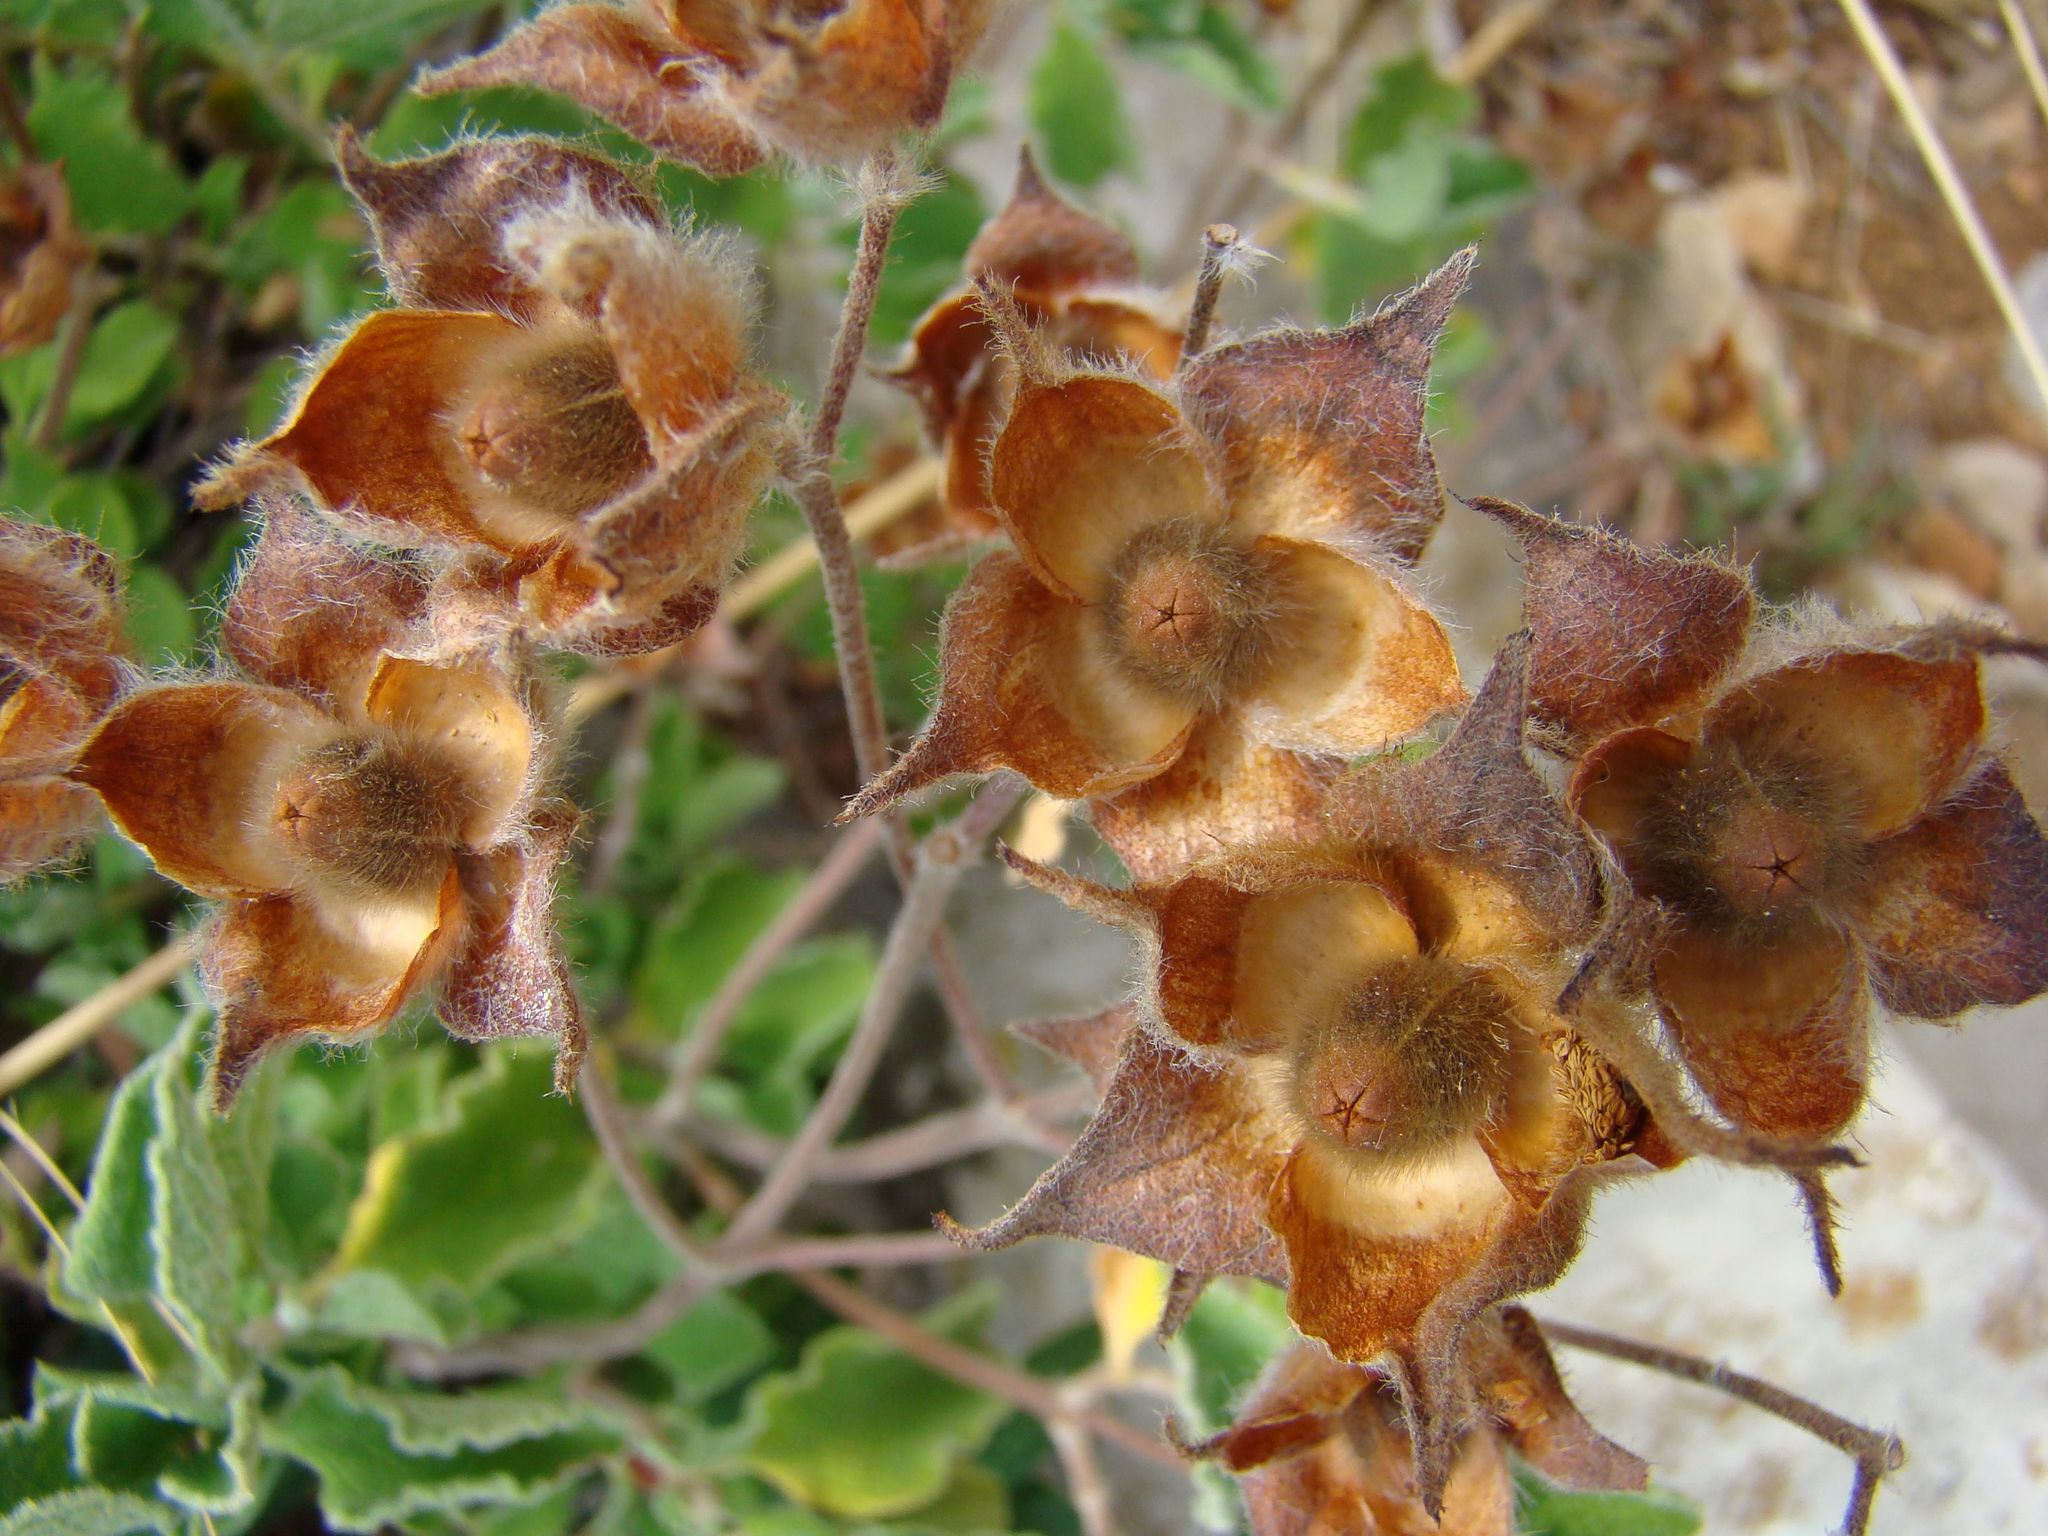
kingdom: Plantae
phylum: Tracheophyta
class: Magnoliopsida
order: Malvales
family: Cistaceae
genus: Cistus
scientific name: Cistus creticus
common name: Cretan rockrose
